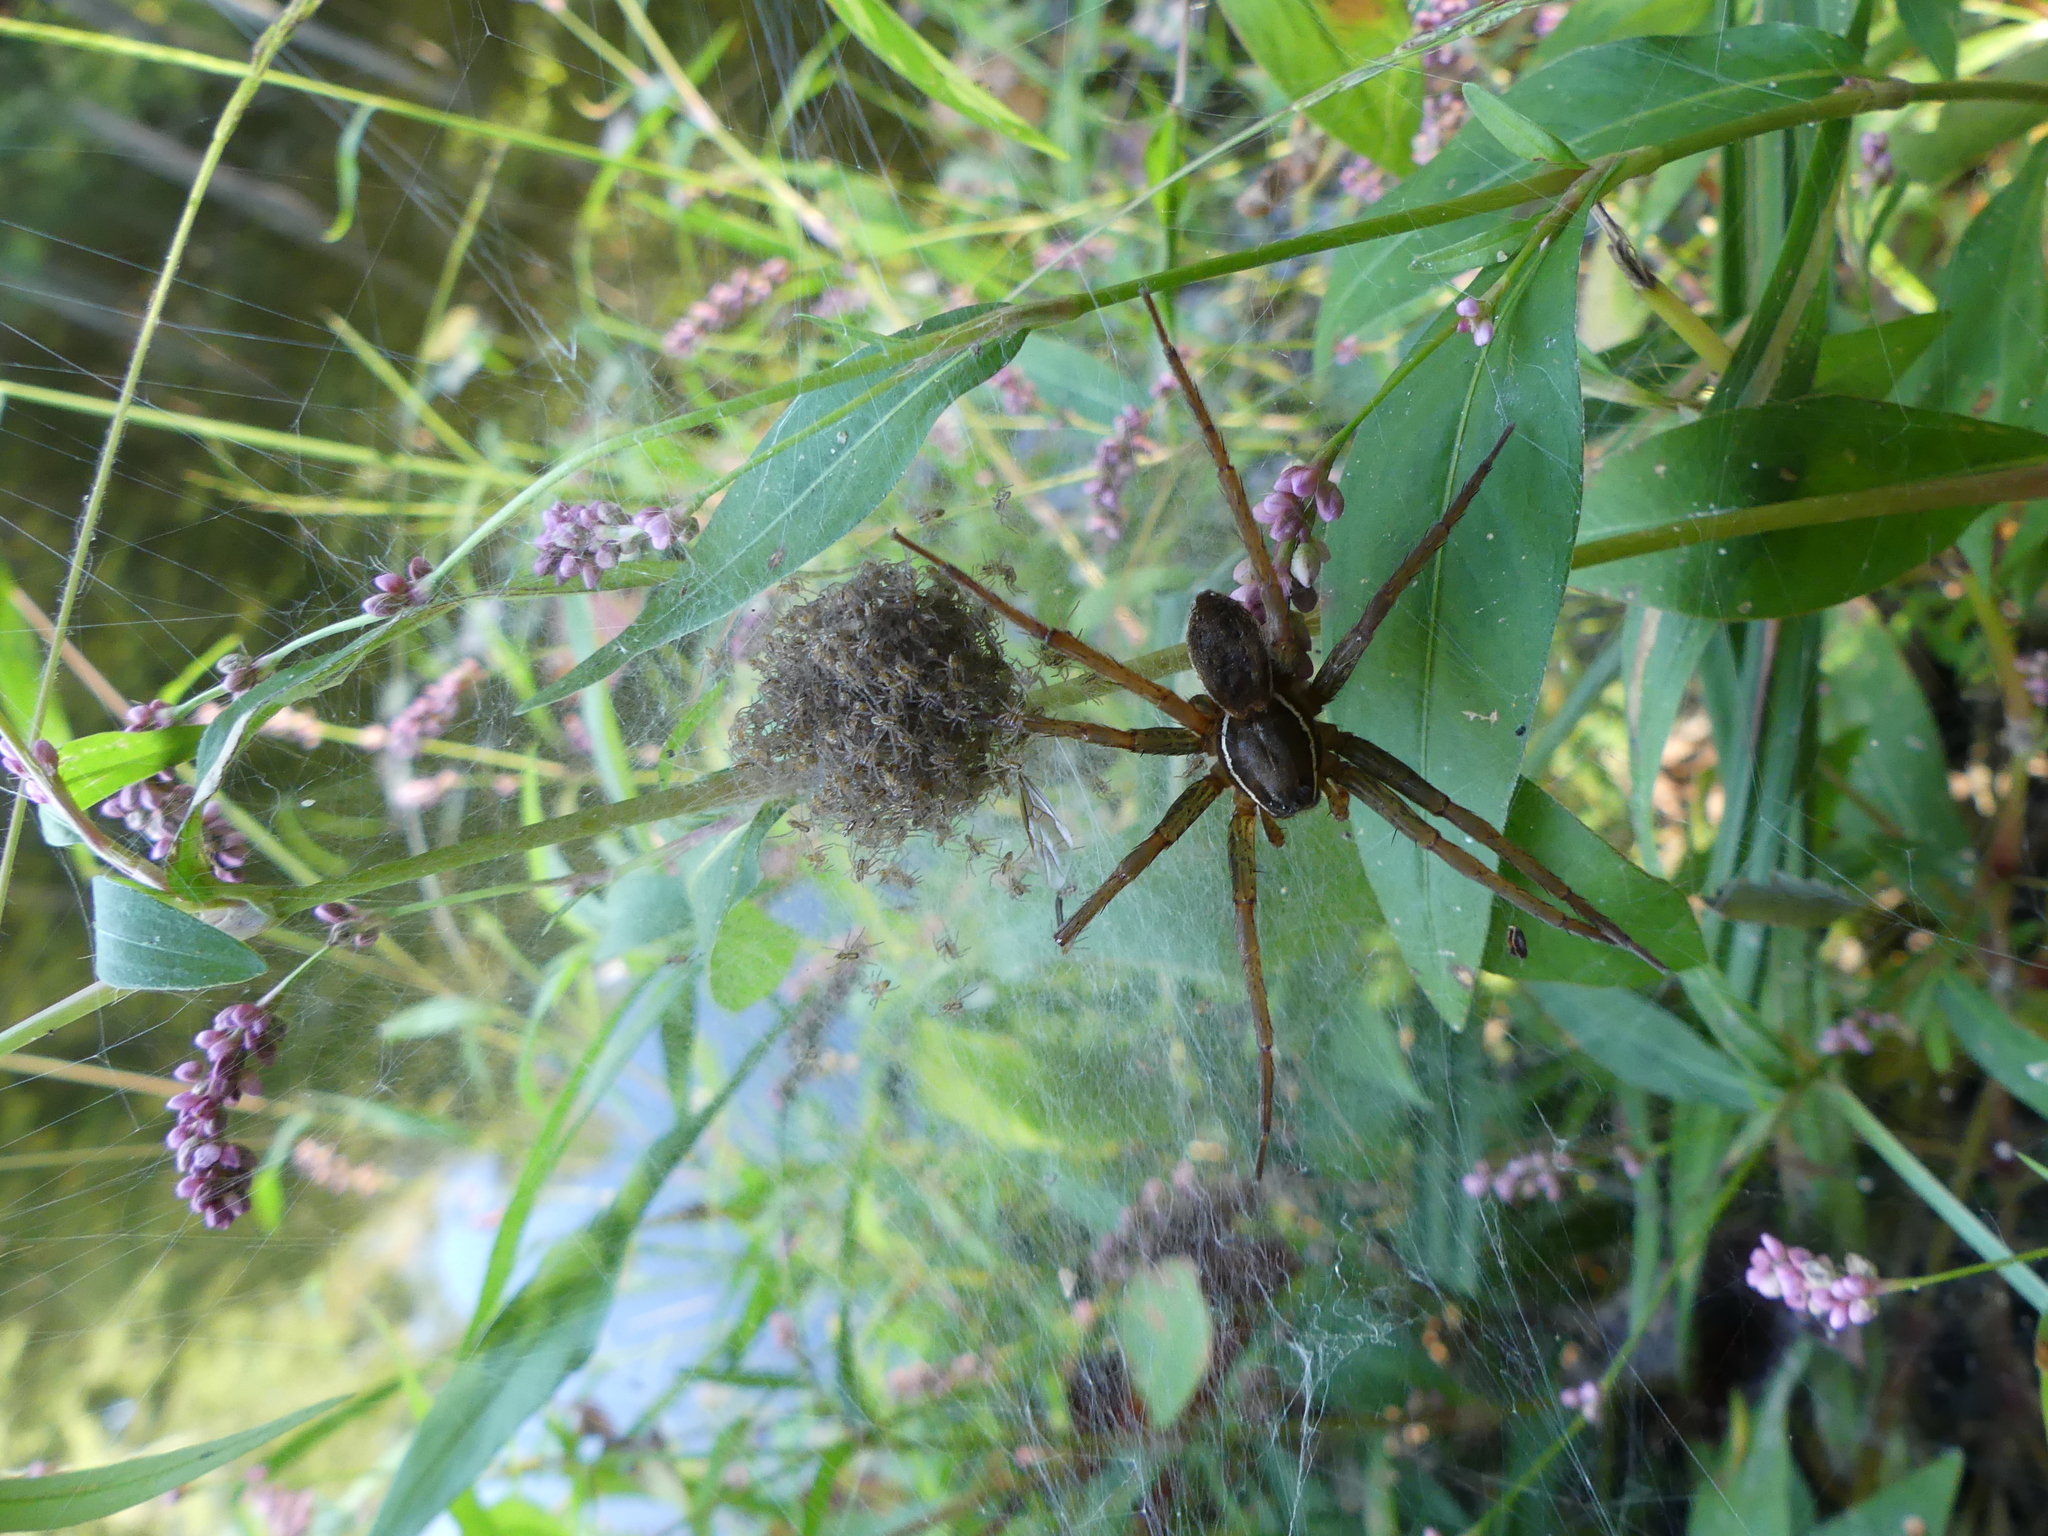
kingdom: Animalia
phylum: Arthropoda
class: Arachnida
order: Araneae
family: Pisauridae
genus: Dolomedes
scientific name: Dolomedes triton
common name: Six-spotted fishing spider
